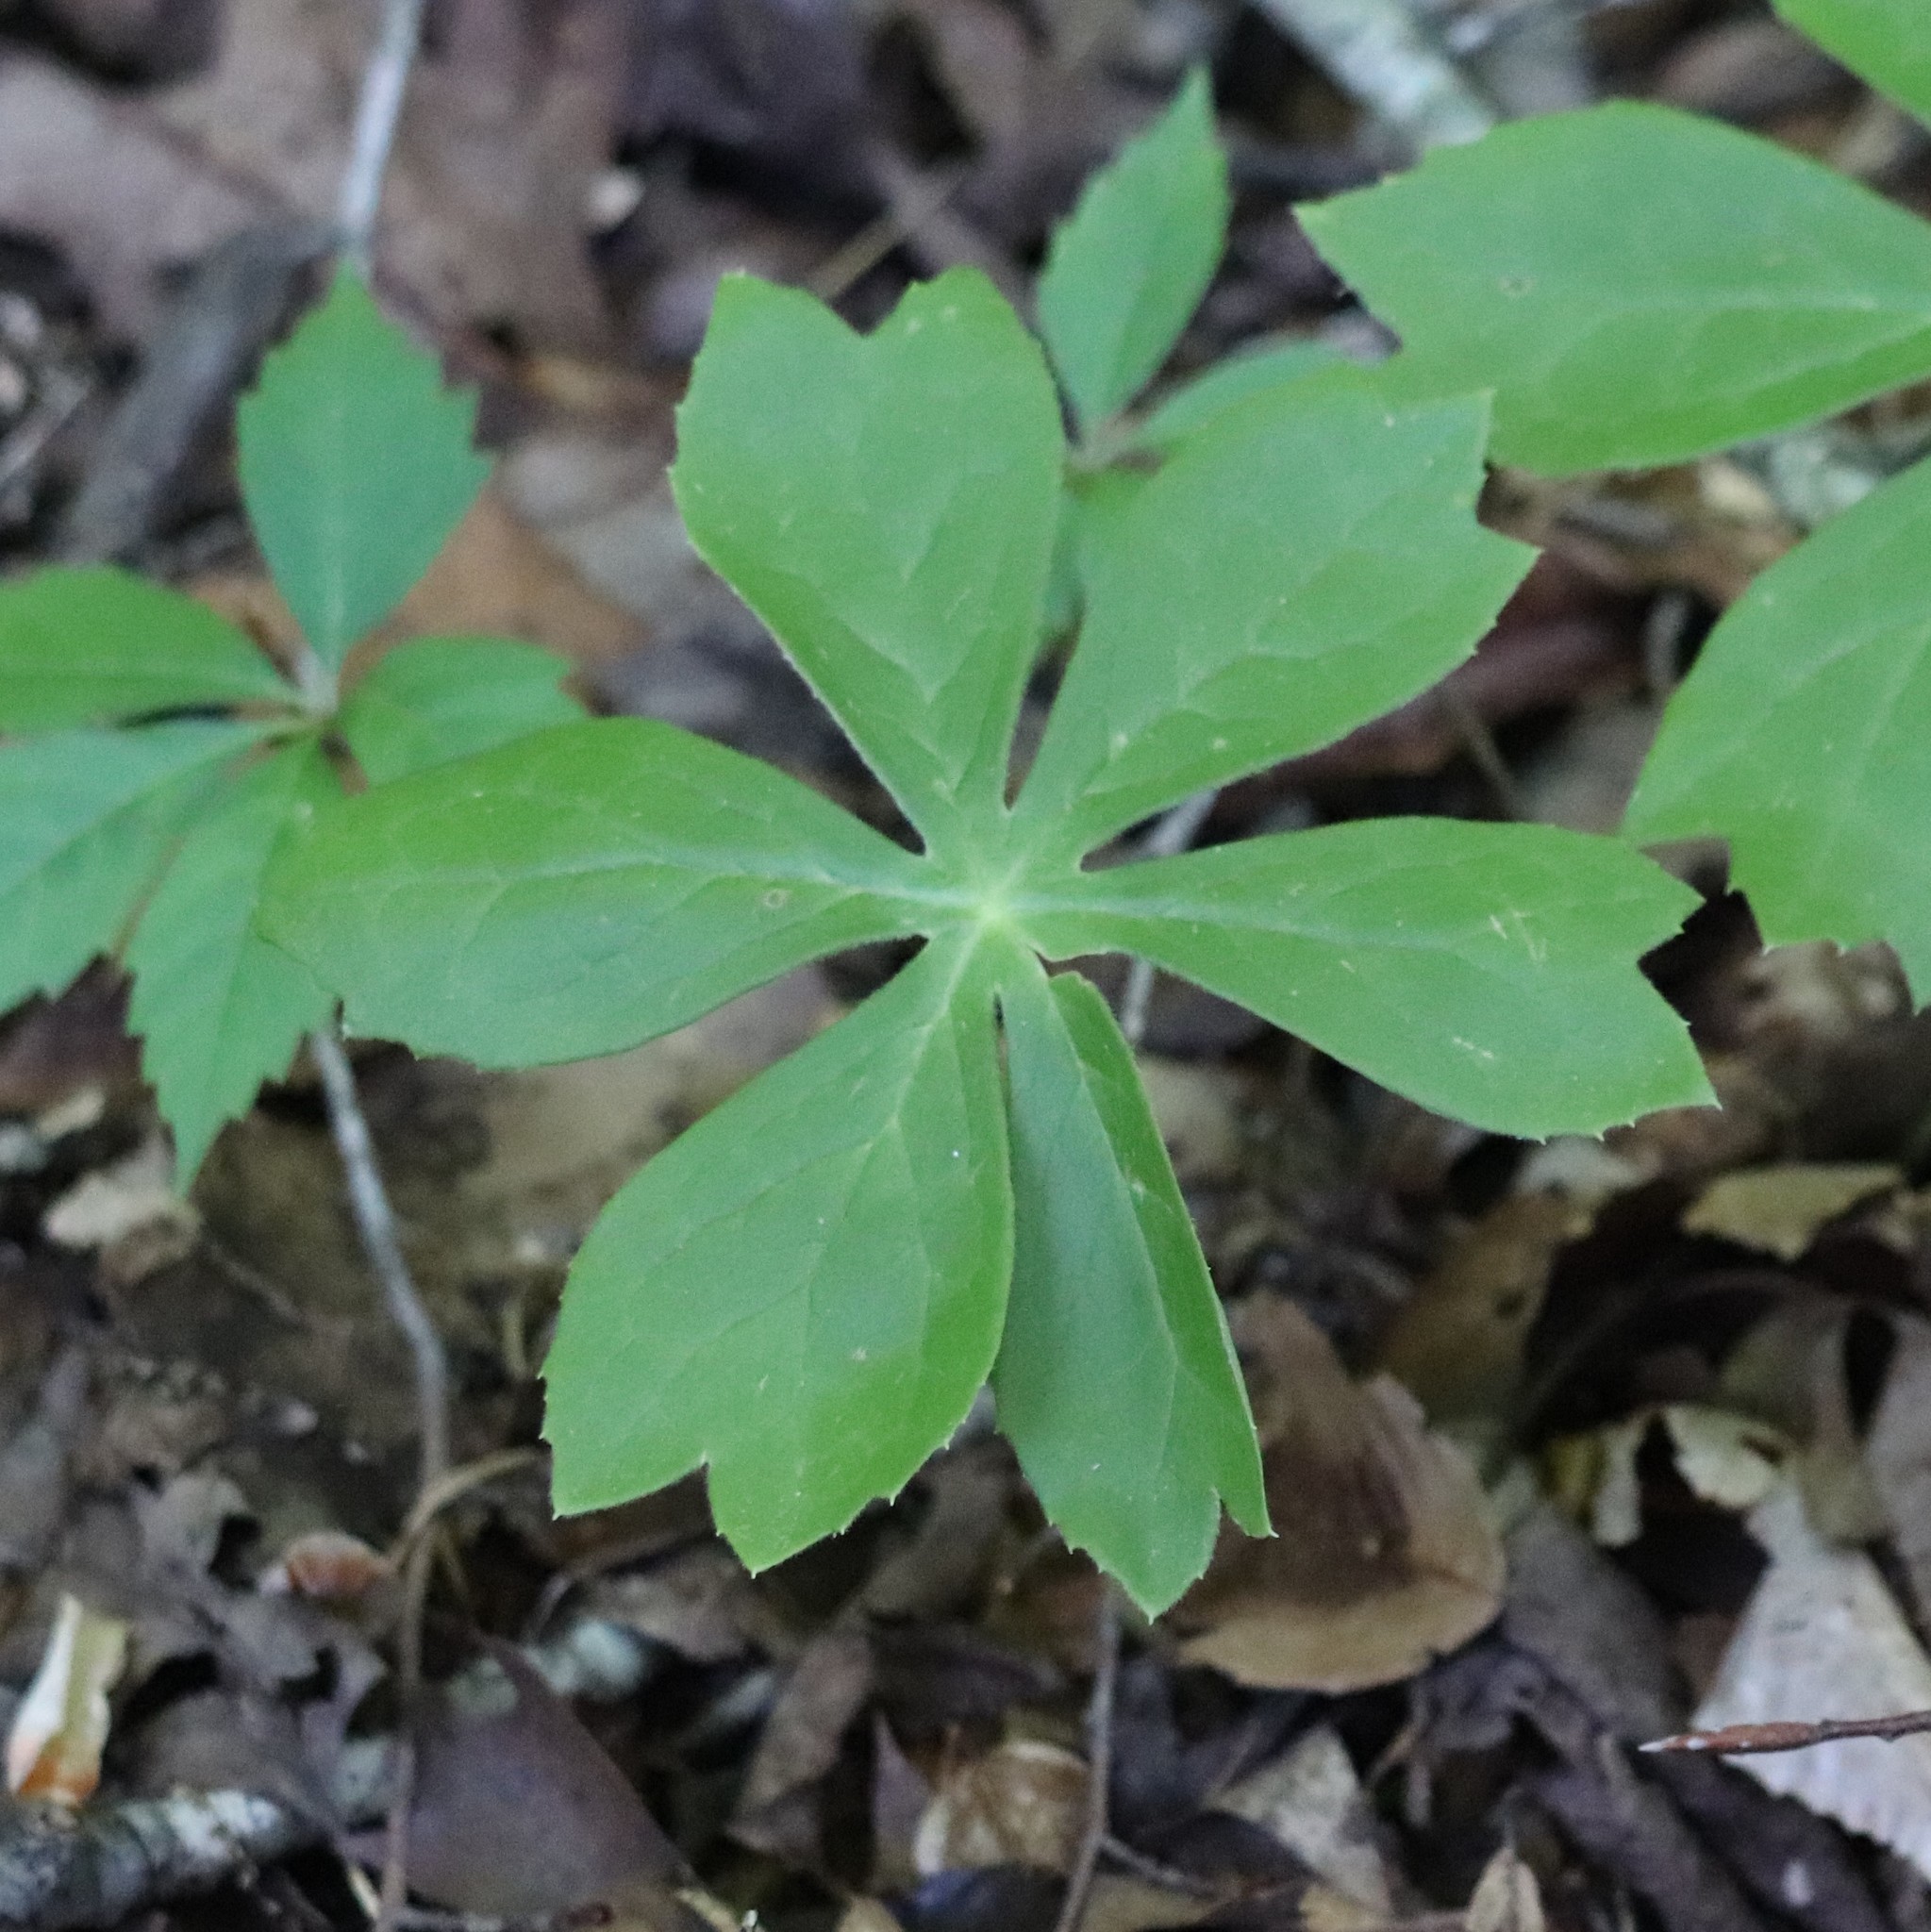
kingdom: Plantae
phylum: Tracheophyta
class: Magnoliopsida
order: Ranunculales
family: Berberidaceae
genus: Podophyllum
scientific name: Podophyllum peltatum
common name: Wild mandrake
